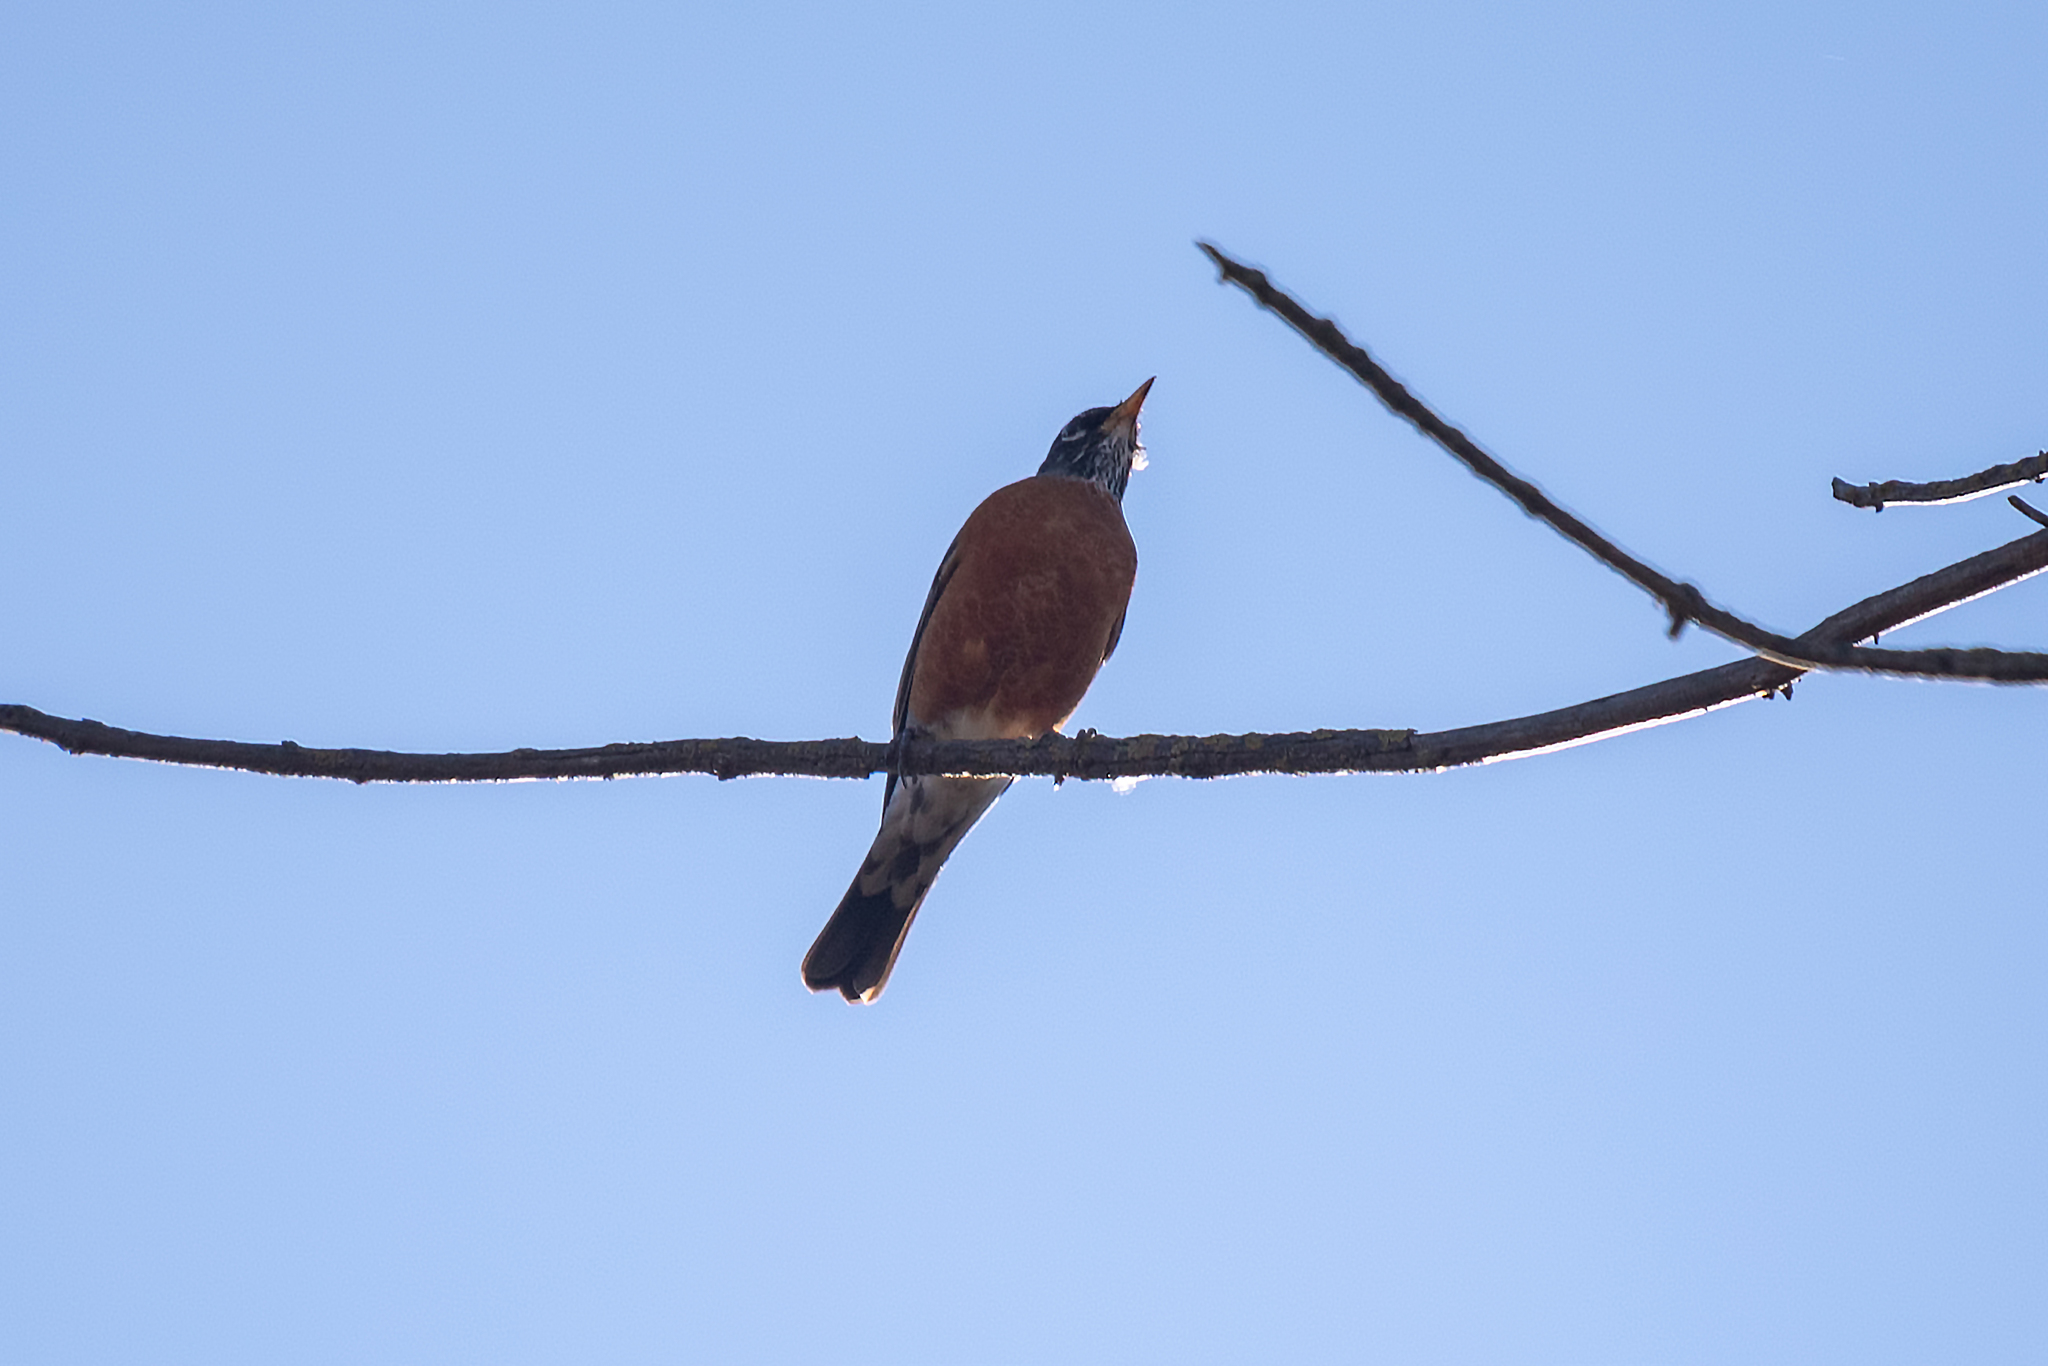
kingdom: Animalia
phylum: Chordata
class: Aves
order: Passeriformes
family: Turdidae
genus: Turdus
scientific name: Turdus migratorius
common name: American robin
